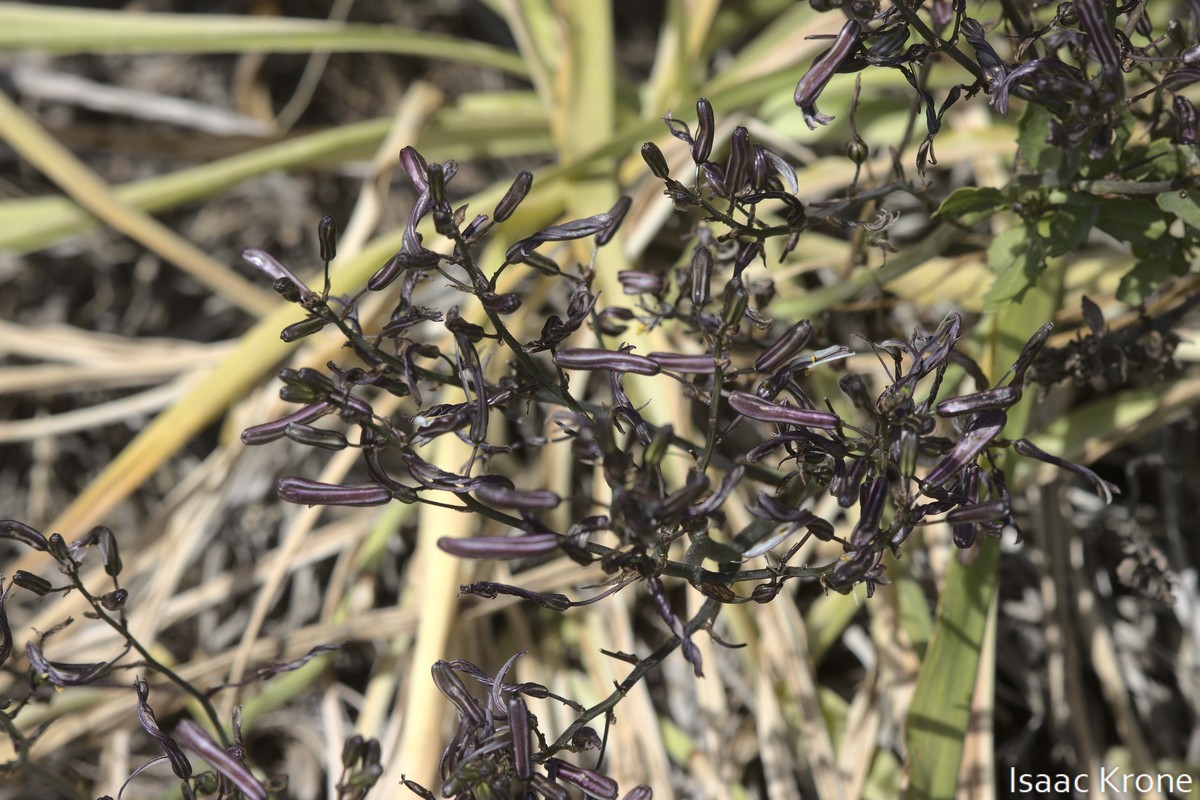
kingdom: Plantae
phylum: Tracheophyta
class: Liliopsida
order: Asparagales
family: Asparagaceae
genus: Chlorogalum
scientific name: Chlorogalum pomeridianum
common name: Amole
